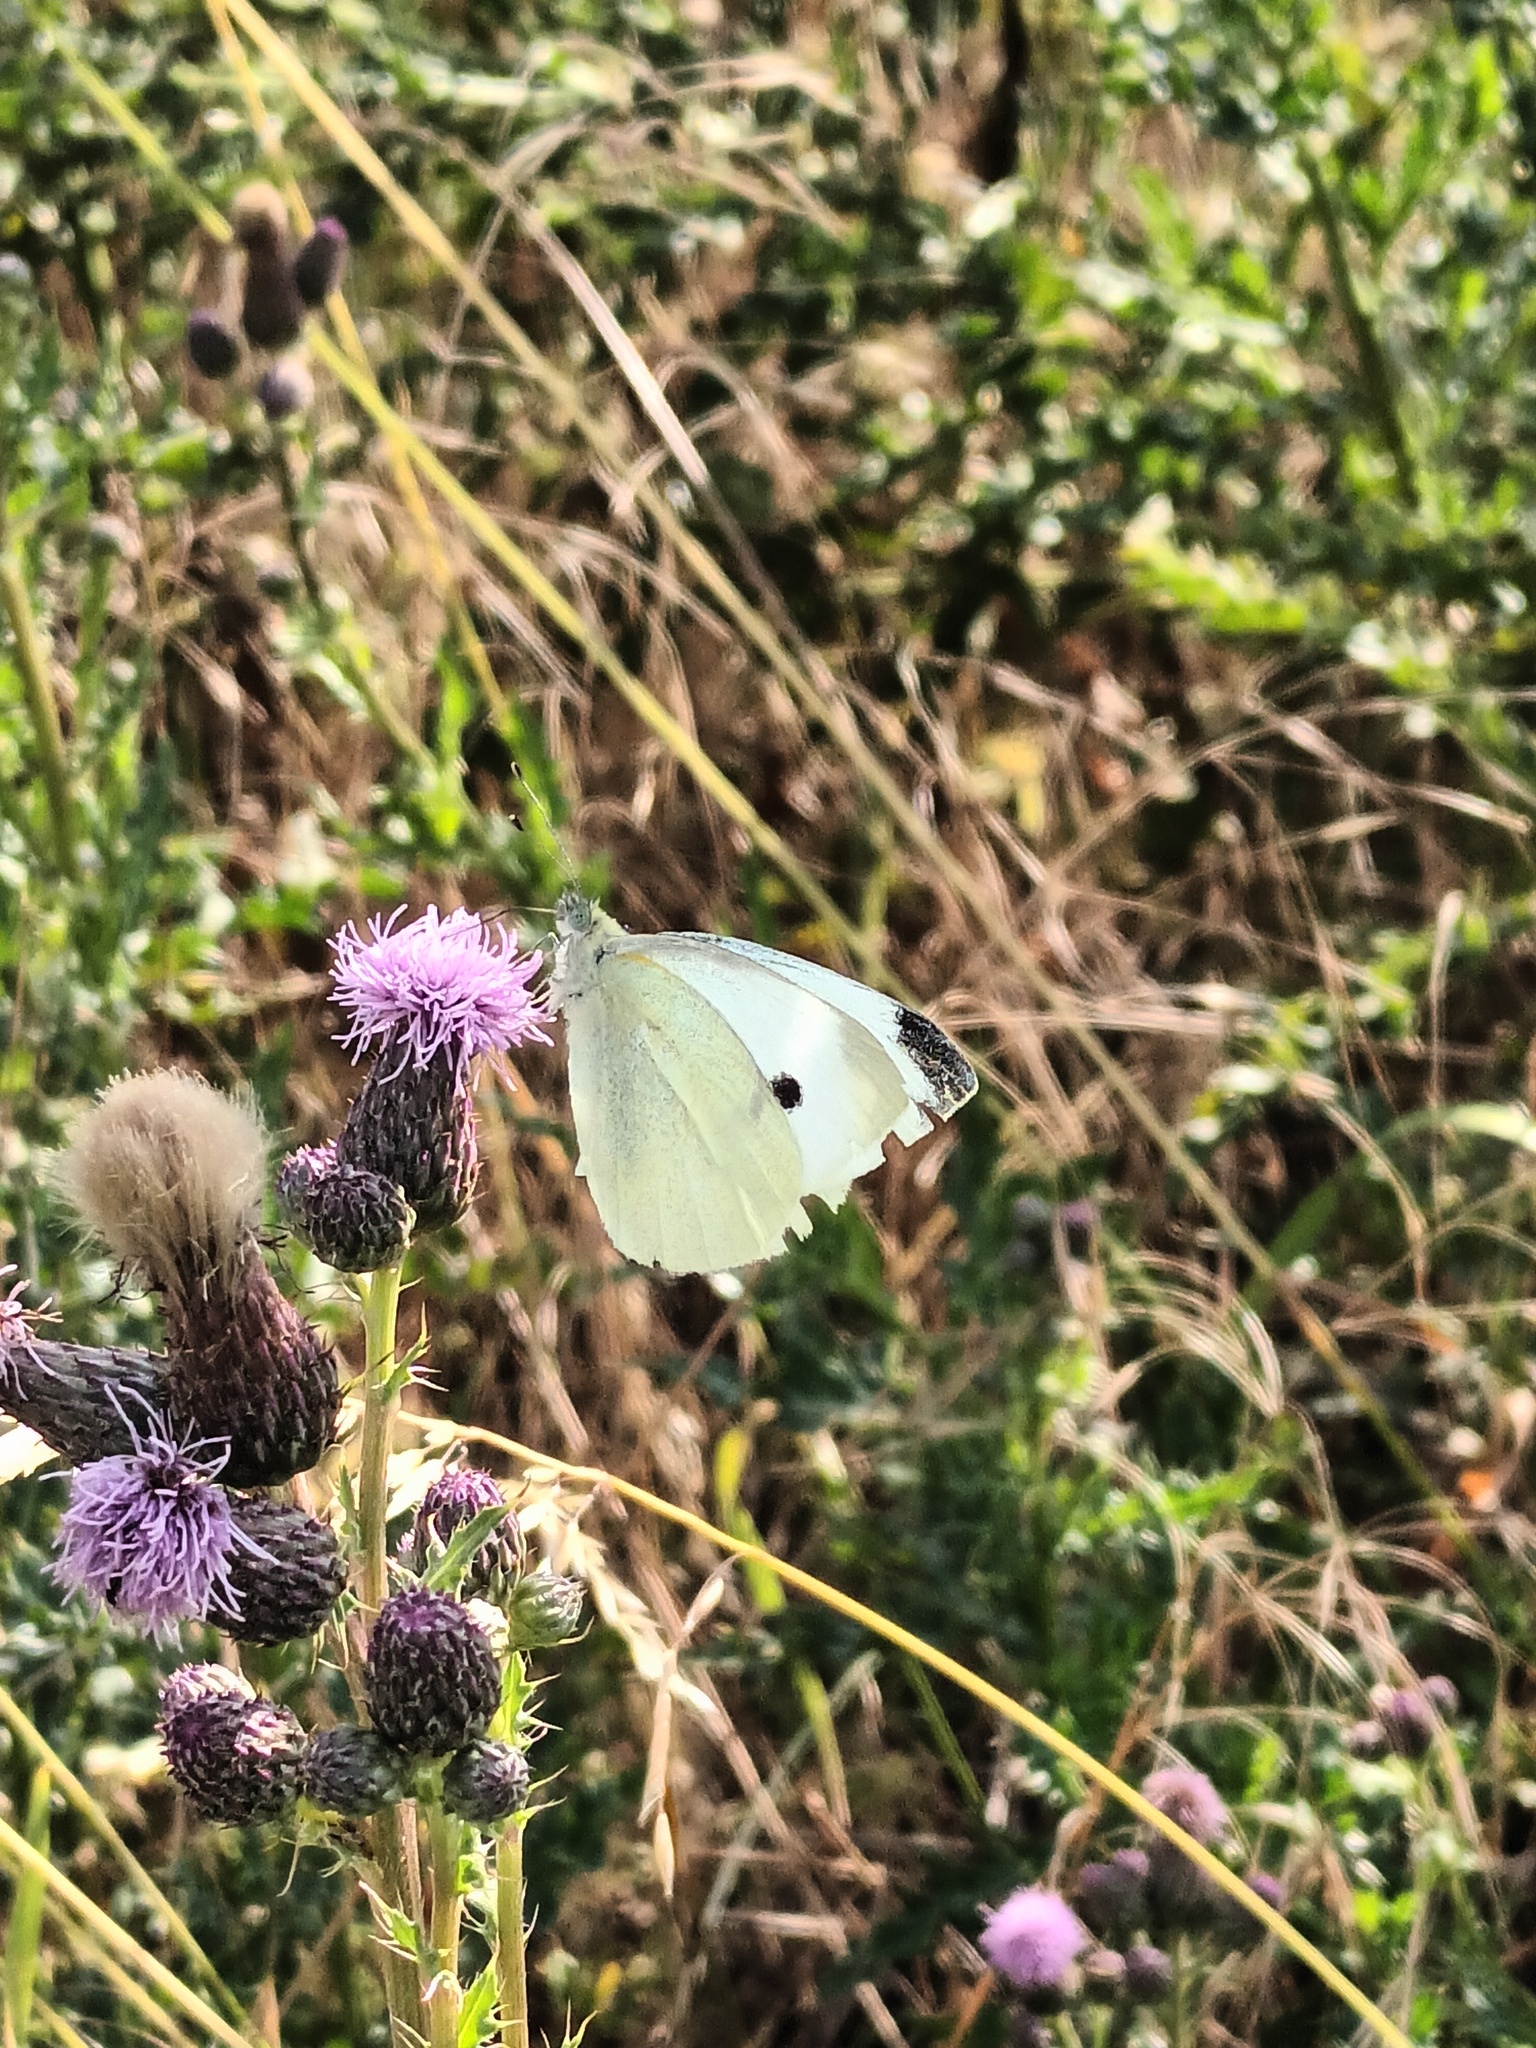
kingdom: Animalia
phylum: Arthropoda
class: Insecta
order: Lepidoptera
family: Pieridae
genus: Pieris
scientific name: Pieris rapae
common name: Small white
